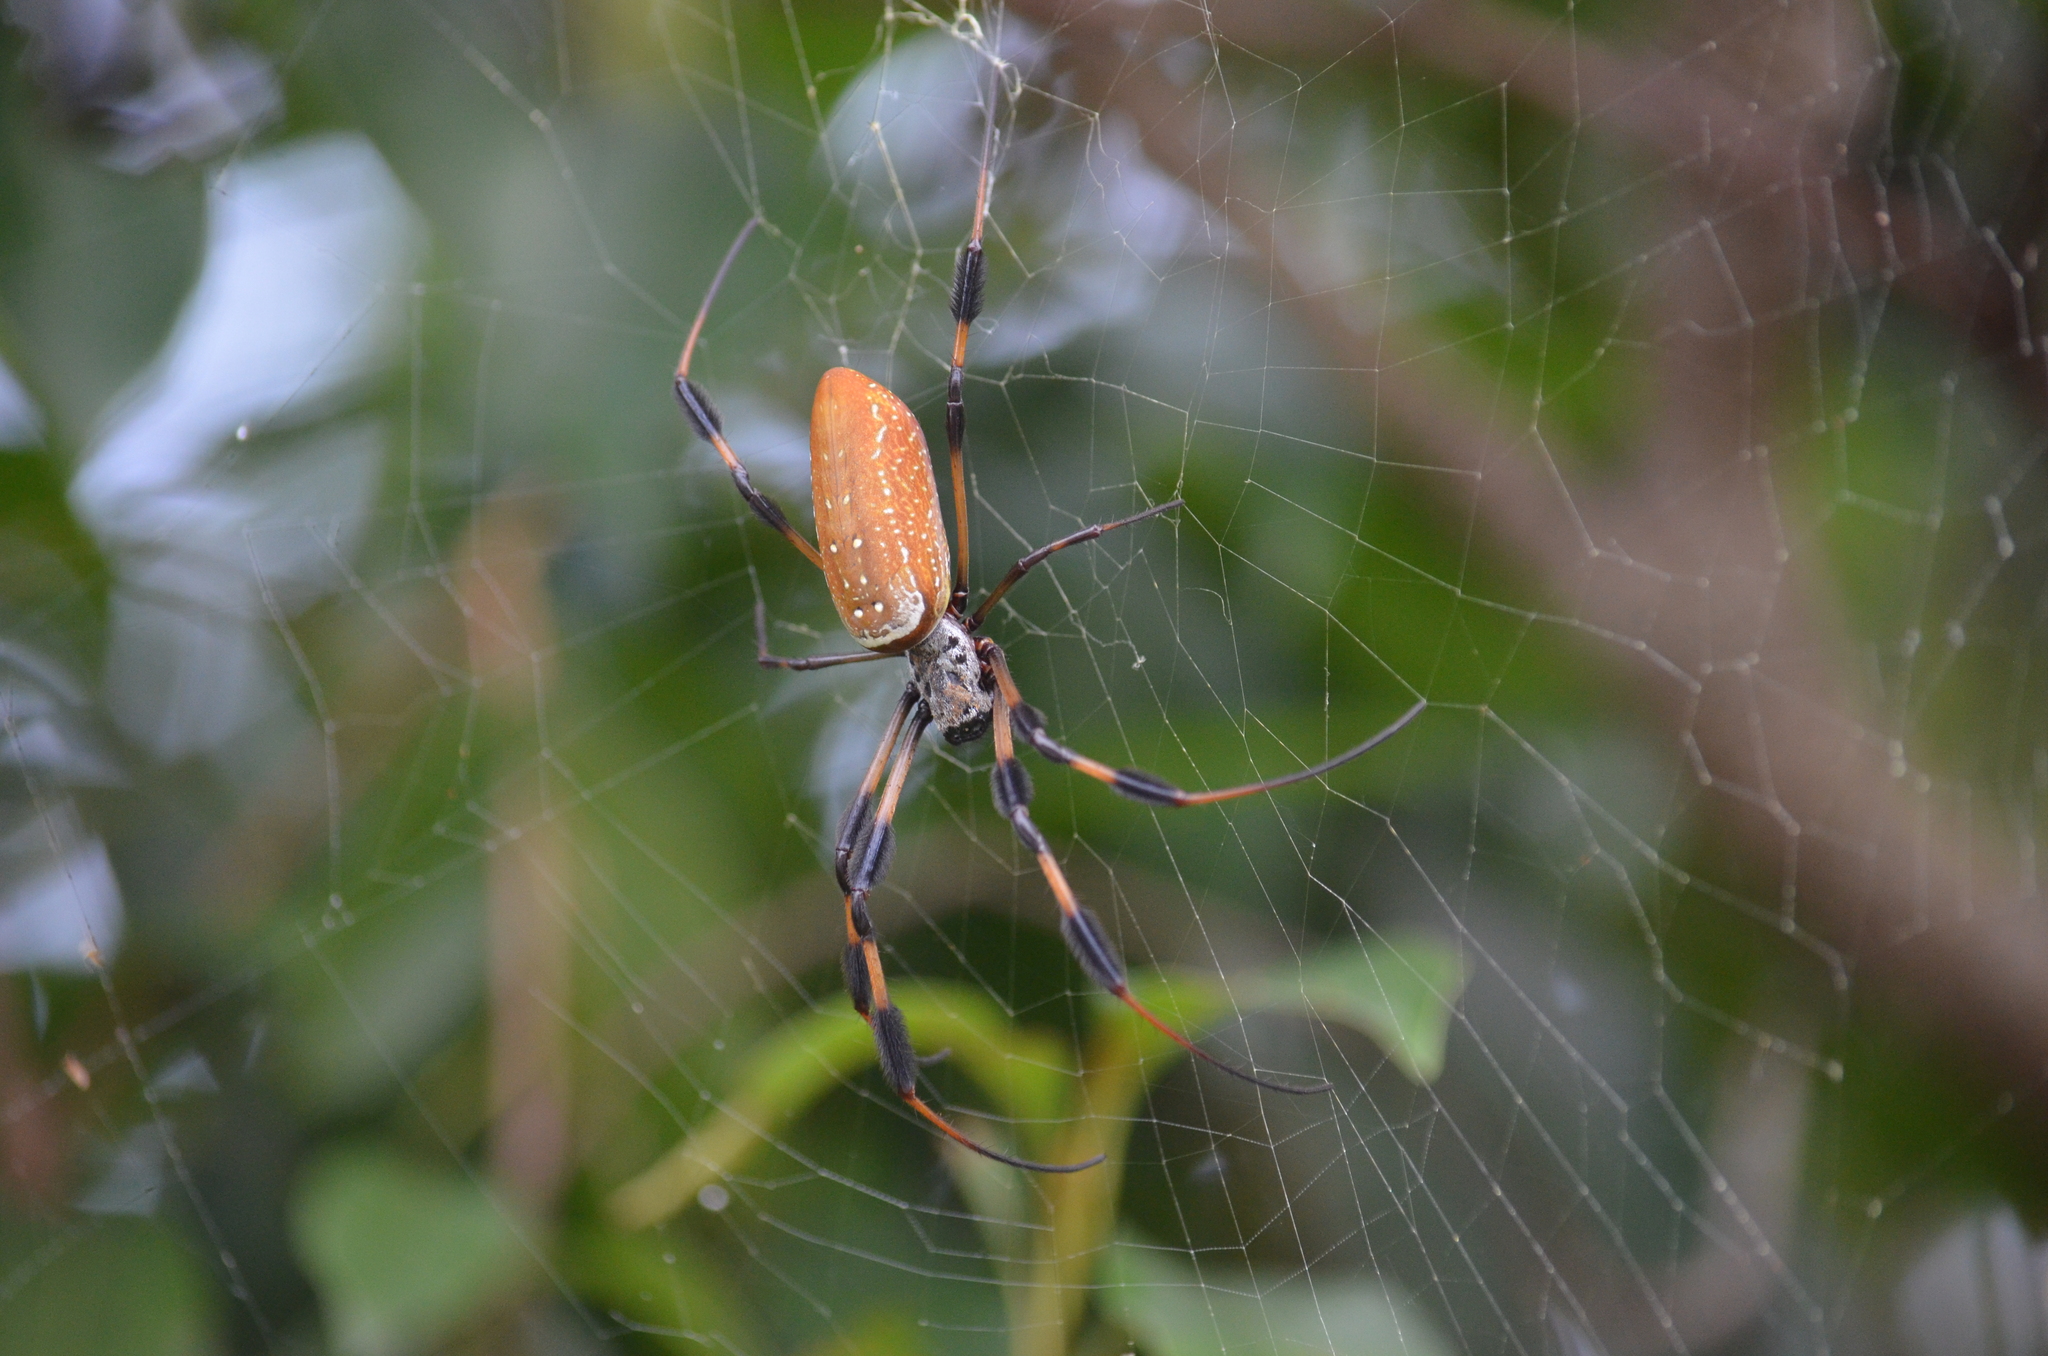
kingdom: Animalia
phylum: Arthropoda
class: Arachnida
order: Araneae
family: Araneidae
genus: Trichonephila
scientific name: Trichonephila clavipes
